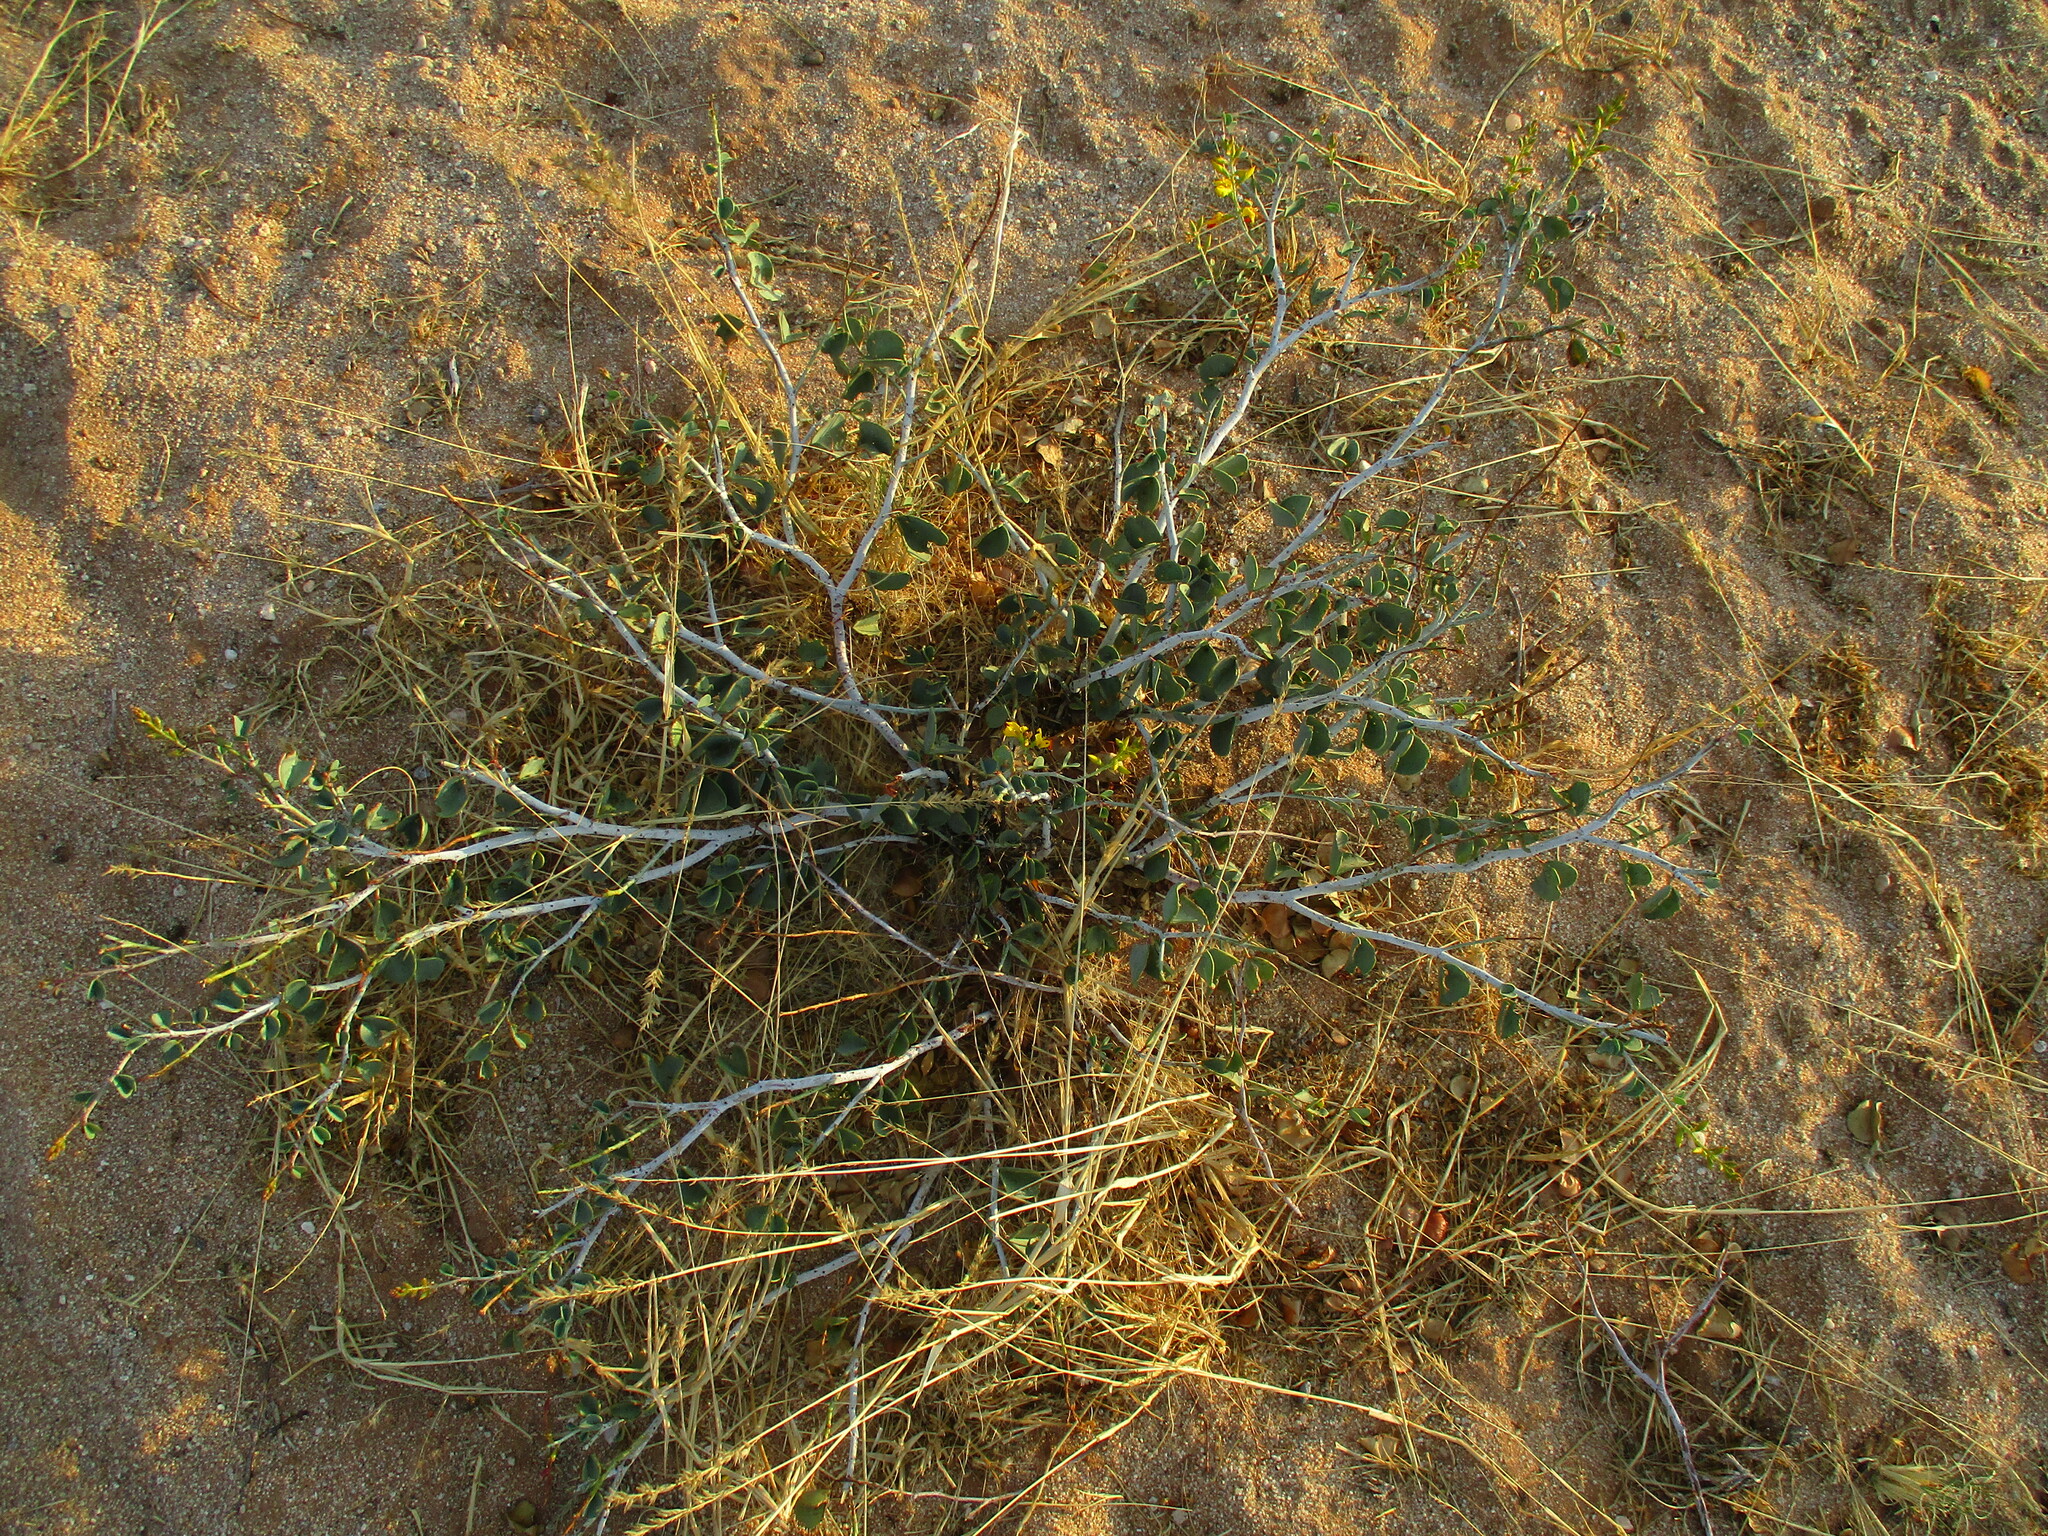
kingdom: Plantae
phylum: Tracheophyta
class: Magnoliopsida
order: Fabales
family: Fabaceae
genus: Adenolobus
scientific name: Adenolobus pechuelii
